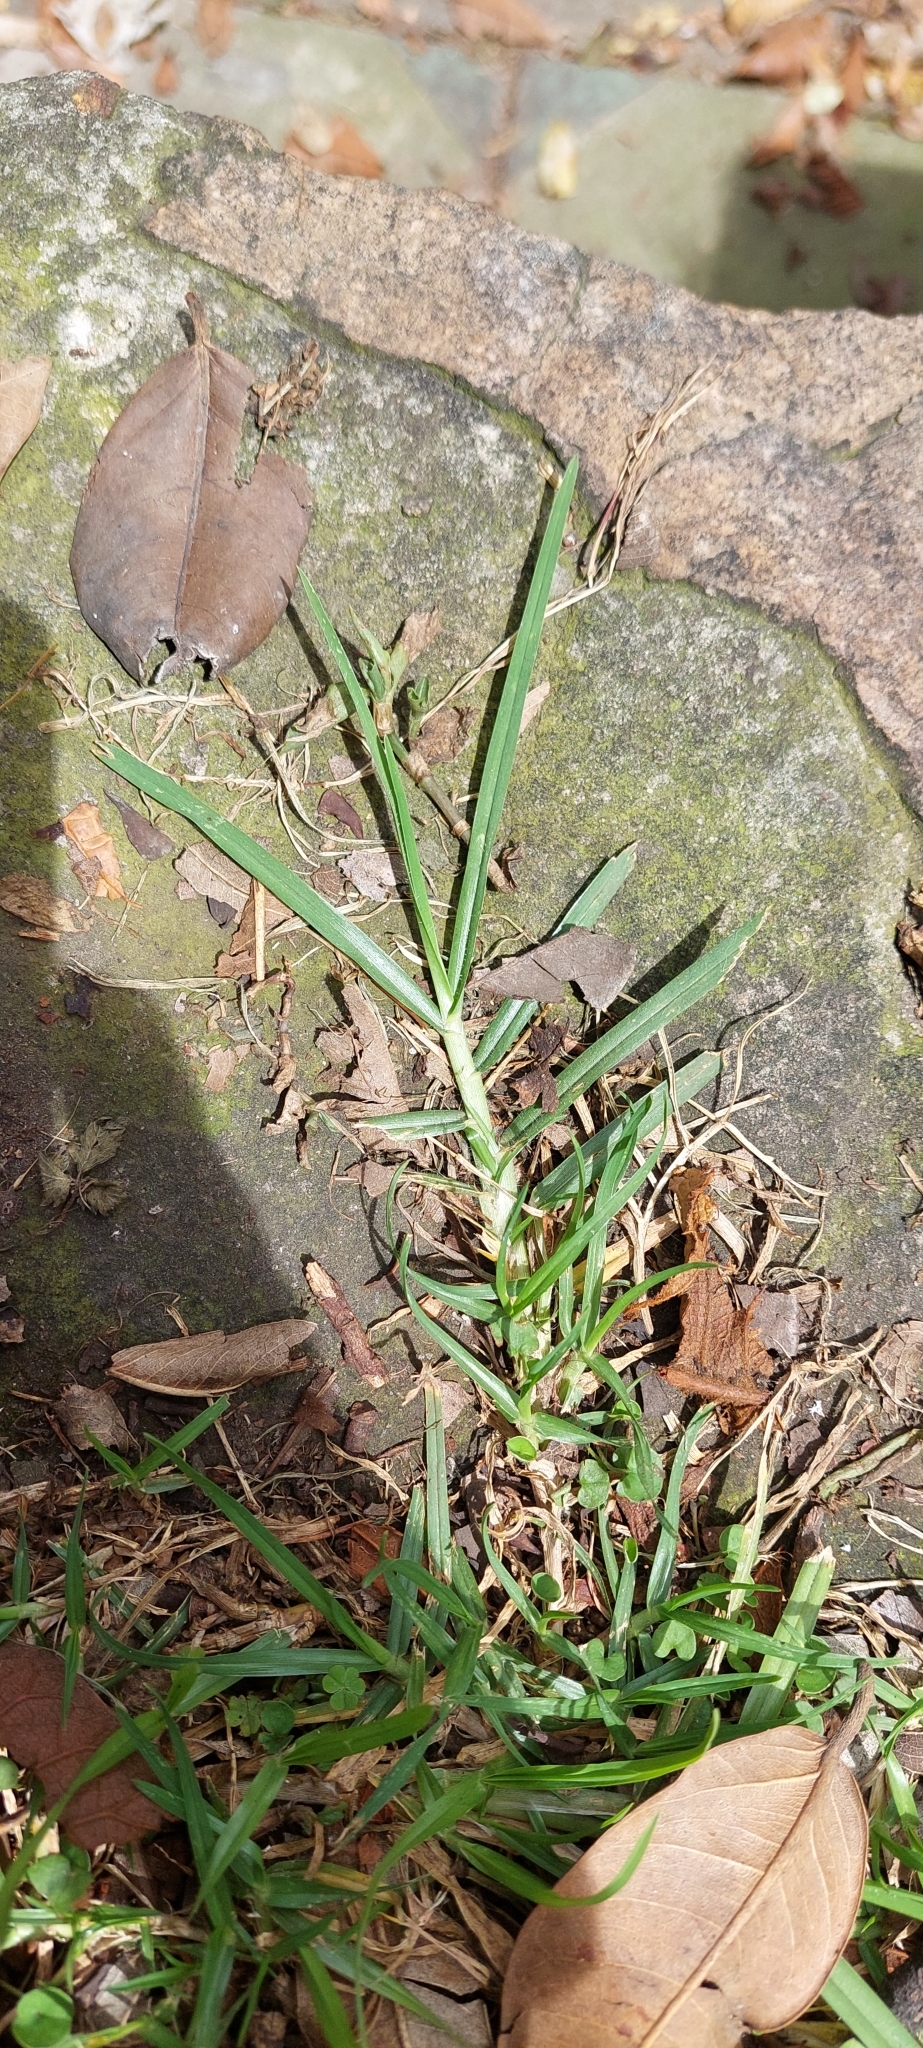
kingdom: Plantae
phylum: Tracheophyta
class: Liliopsida
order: Poales
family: Poaceae
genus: Cenchrus
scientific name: Cenchrus clandestinus
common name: Kikuyugrass
